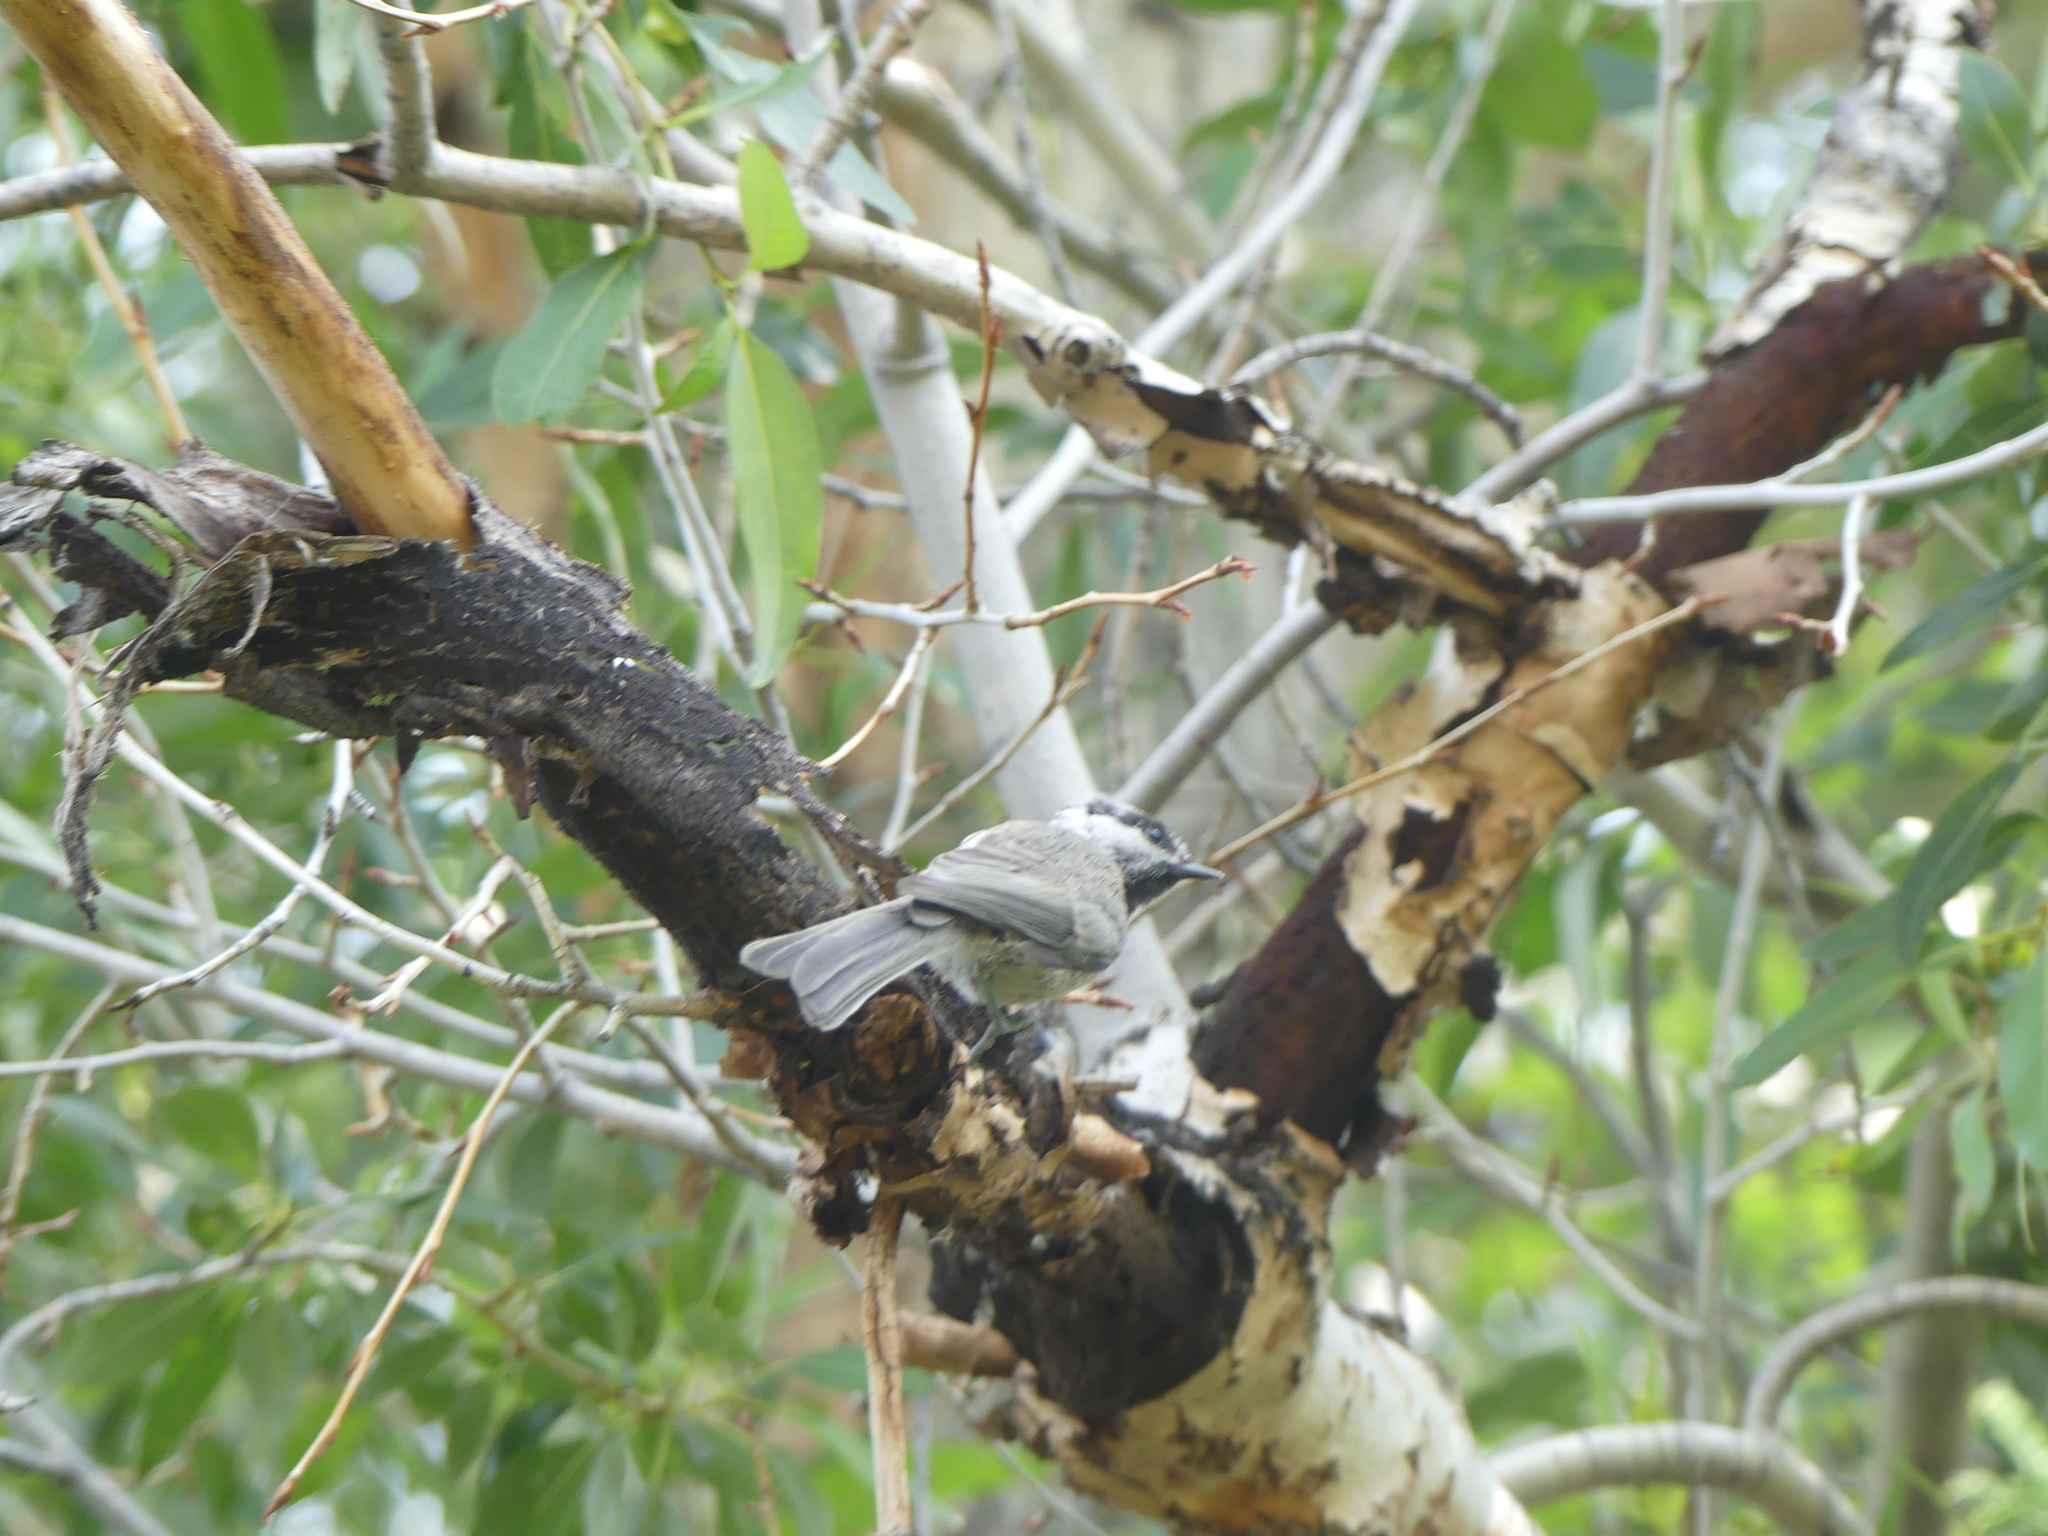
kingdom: Animalia
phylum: Chordata
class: Aves
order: Passeriformes
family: Paridae
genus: Poecile
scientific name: Poecile gambeli
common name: Mountain chickadee
